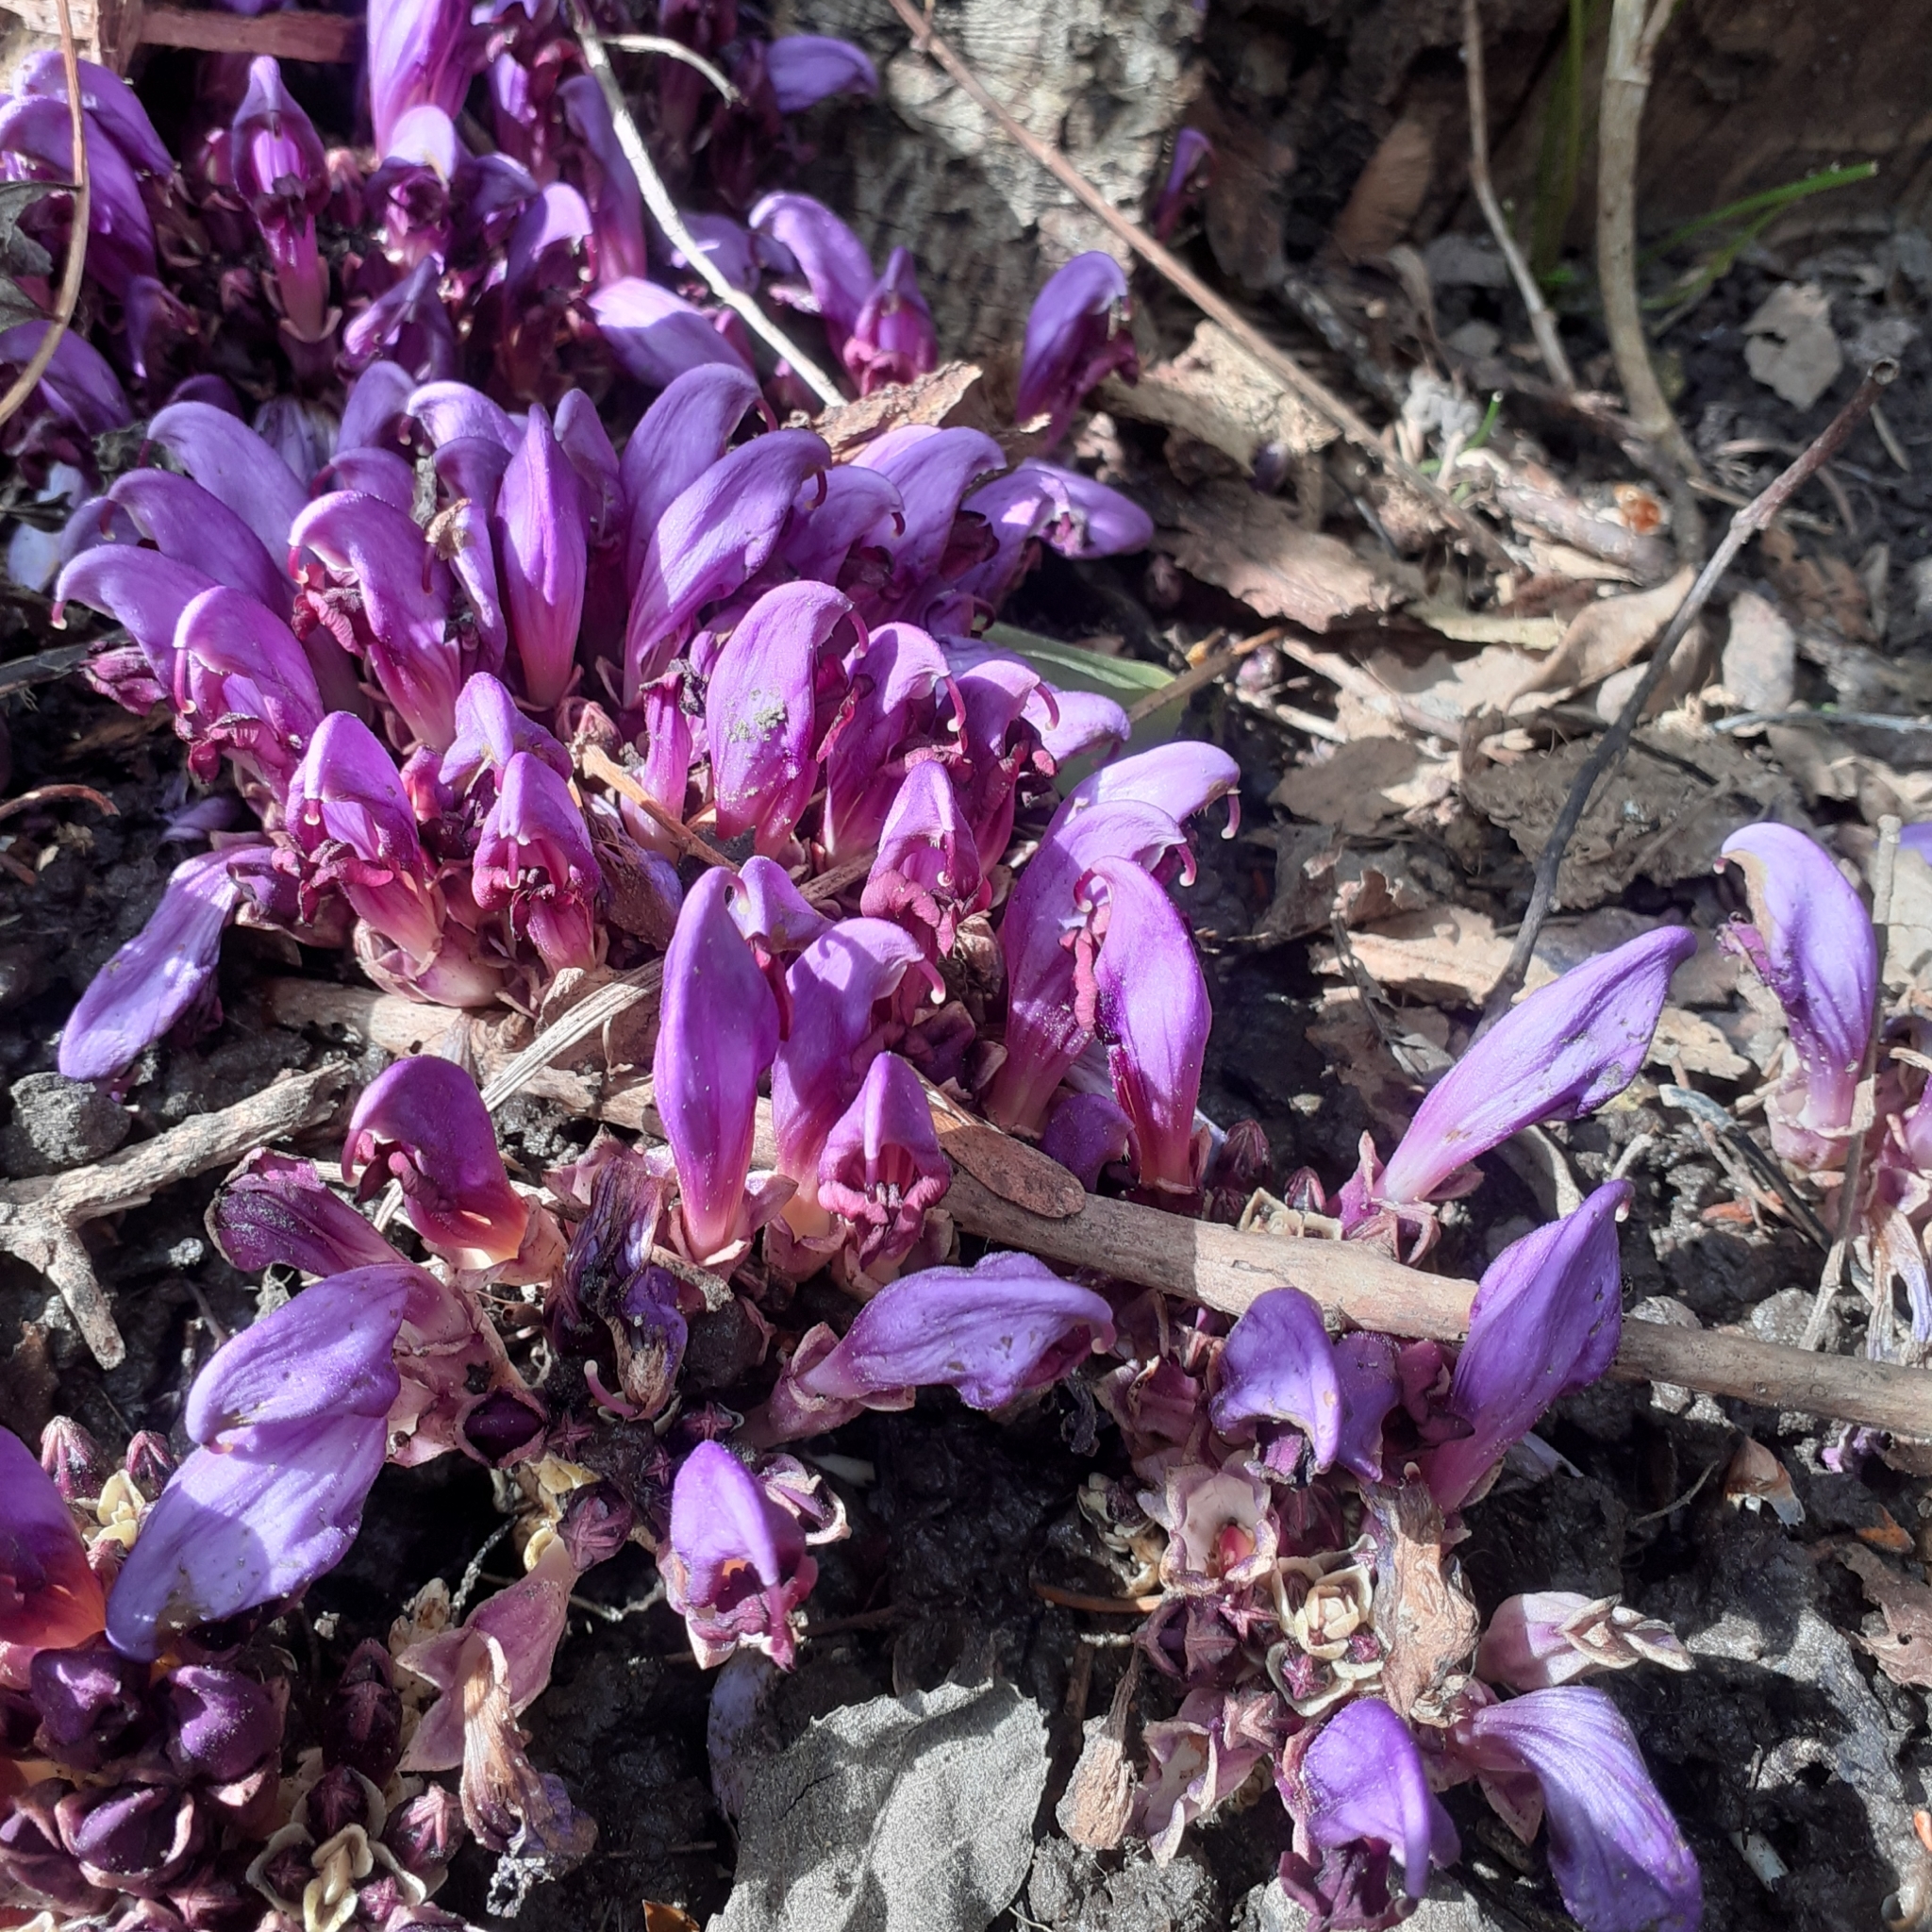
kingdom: Plantae
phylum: Tracheophyta
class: Magnoliopsida
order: Lamiales
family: Orobanchaceae
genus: Lathraea
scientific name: Lathraea clandestina
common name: Purple toothwort
